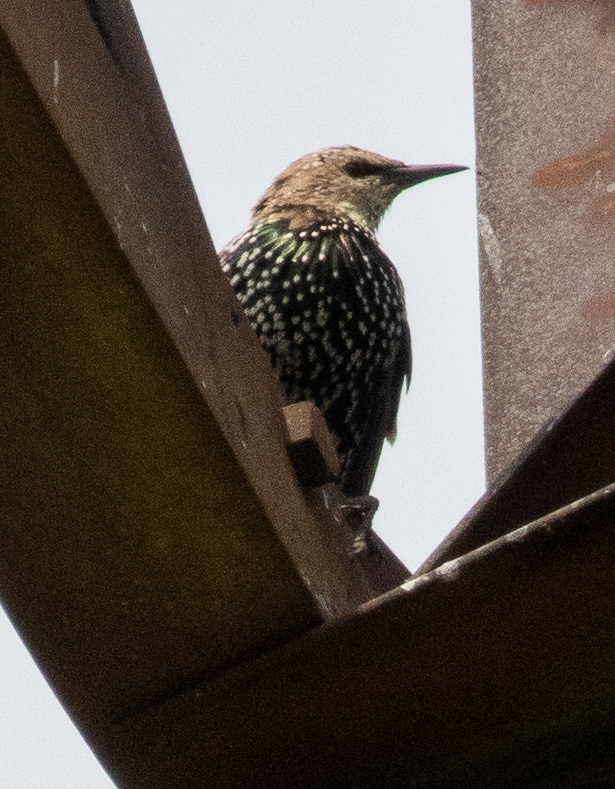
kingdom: Animalia
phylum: Chordata
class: Aves
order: Passeriformes
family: Sturnidae
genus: Sturnus
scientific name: Sturnus vulgaris
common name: Common starling
